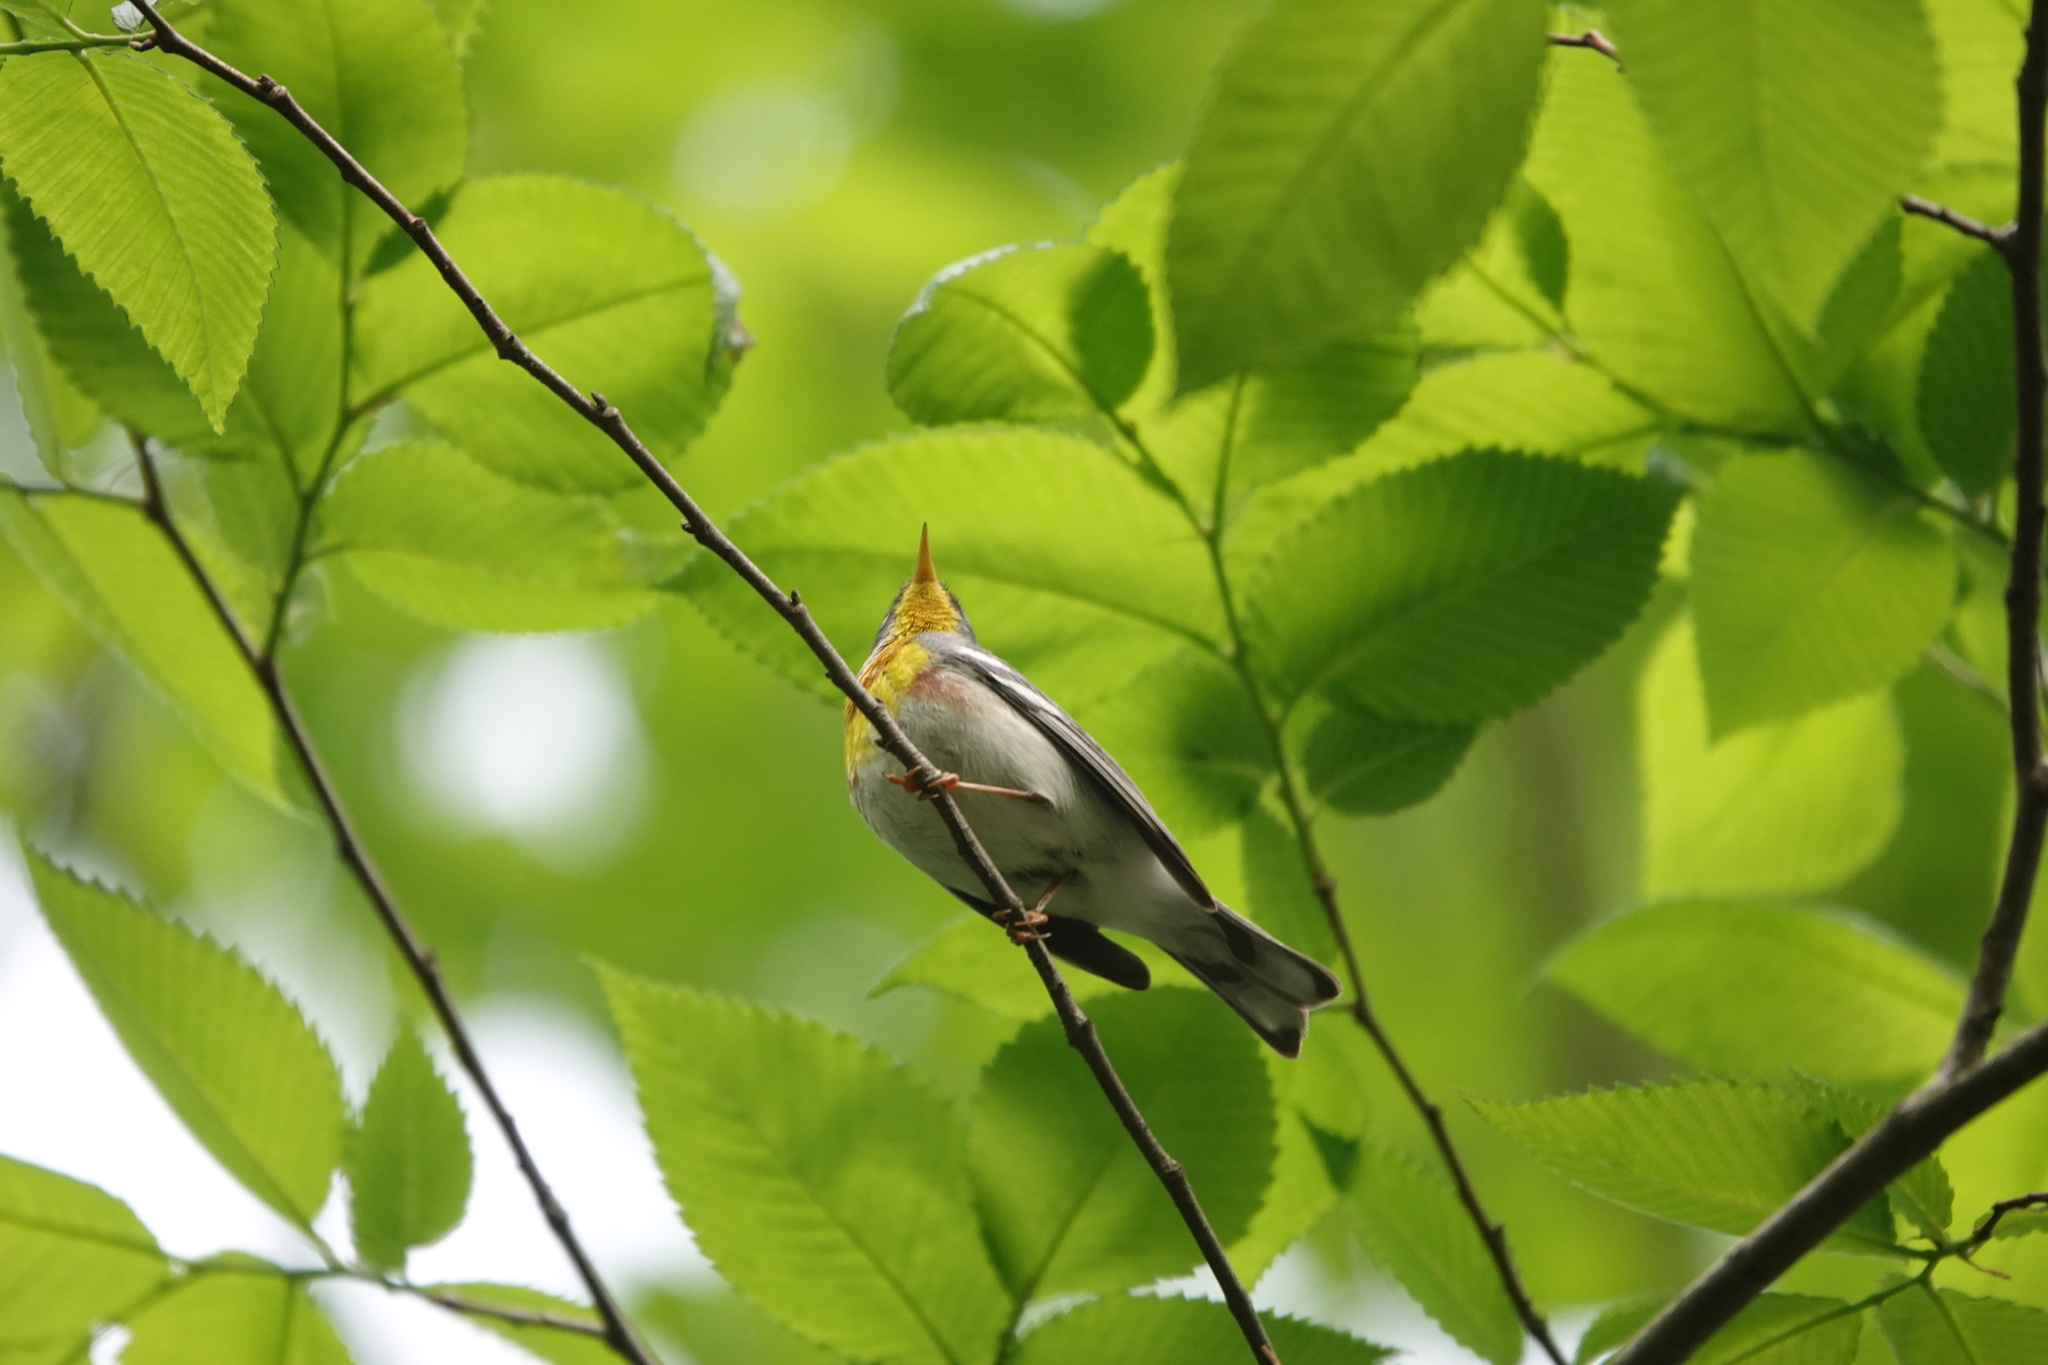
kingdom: Animalia
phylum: Chordata
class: Aves
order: Passeriformes
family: Parulidae
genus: Setophaga
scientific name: Setophaga americana
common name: Northern parula
